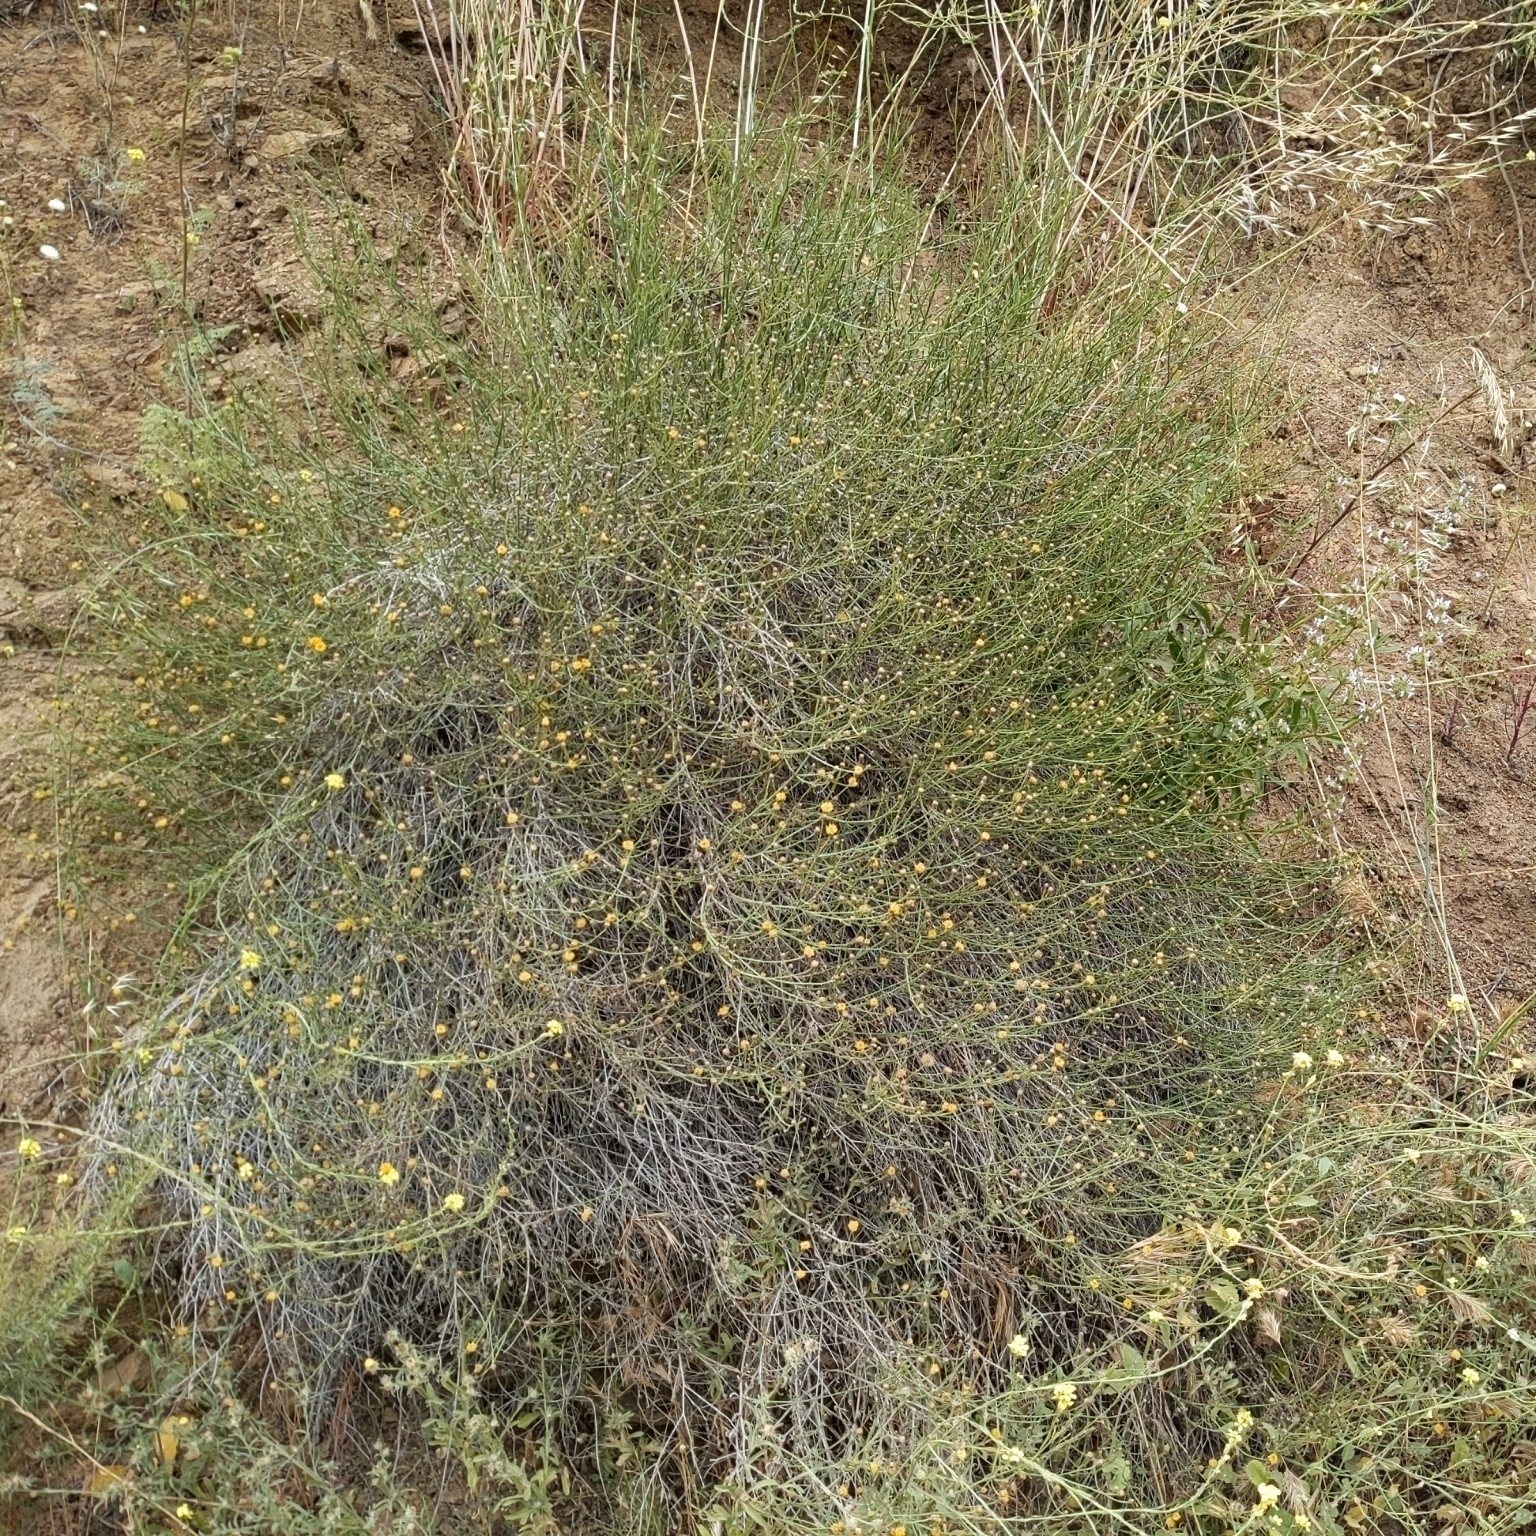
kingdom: Plantae
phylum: Tracheophyta
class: Magnoliopsida
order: Asterales
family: Asteraceae
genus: Bebbia
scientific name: Bebbia juncea
